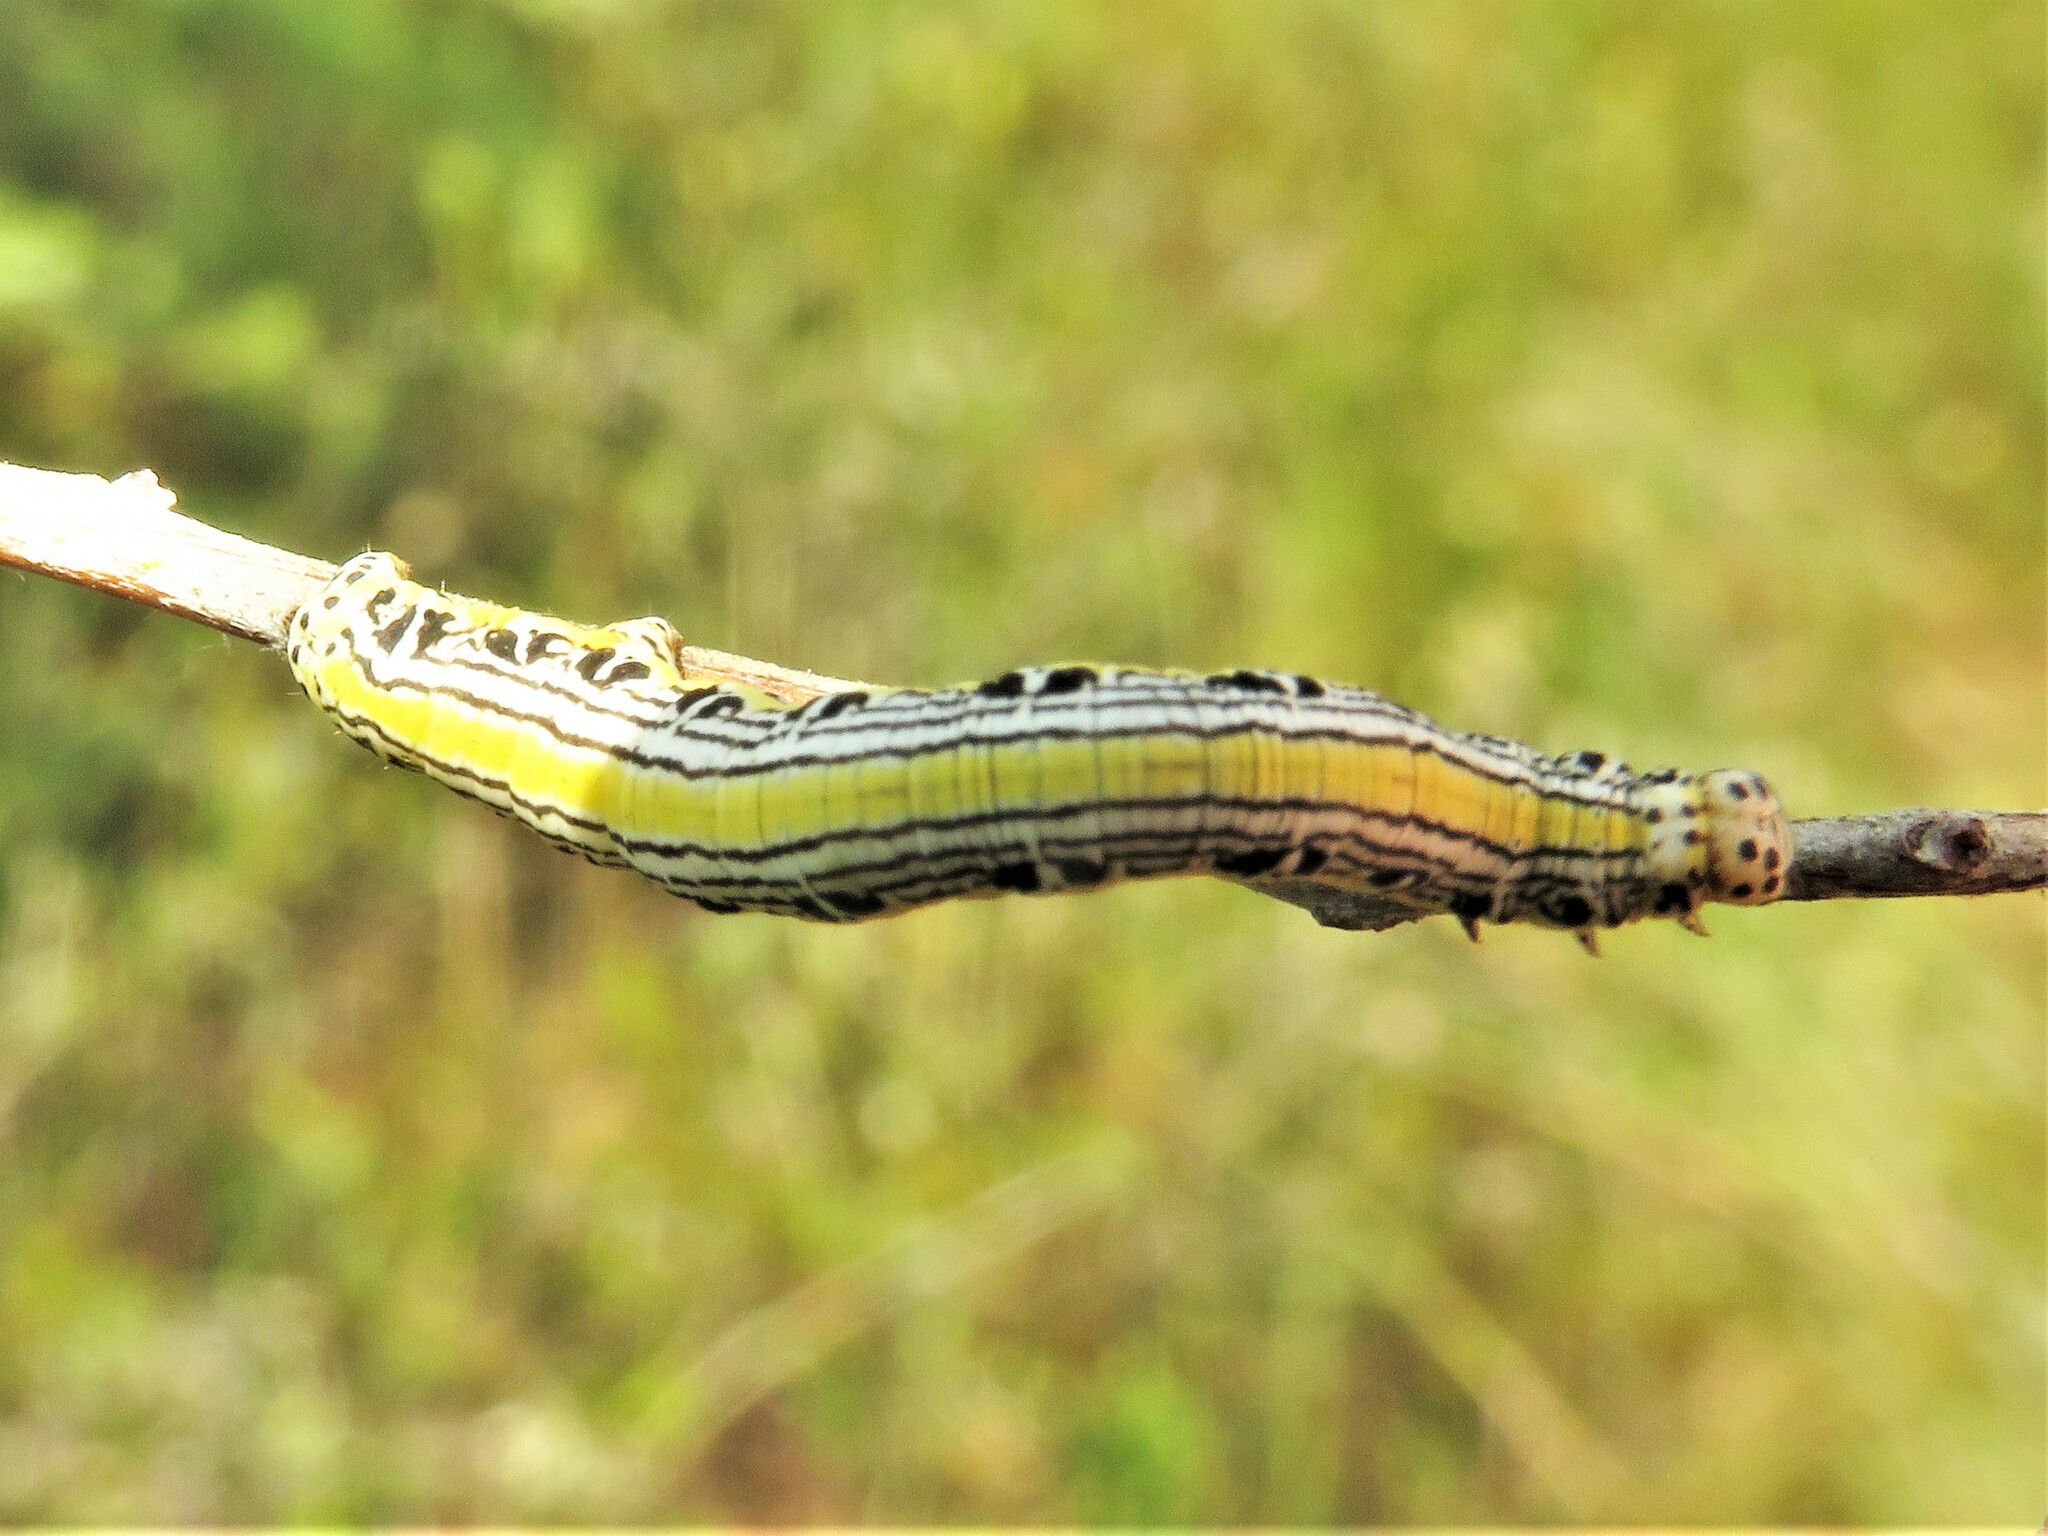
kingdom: Animalia
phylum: Arthropoda
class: Insecta
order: Lepidoptera
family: Geometridae
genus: Cingilia
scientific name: Cingilia catenaria
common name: Chain-dotted geometer
